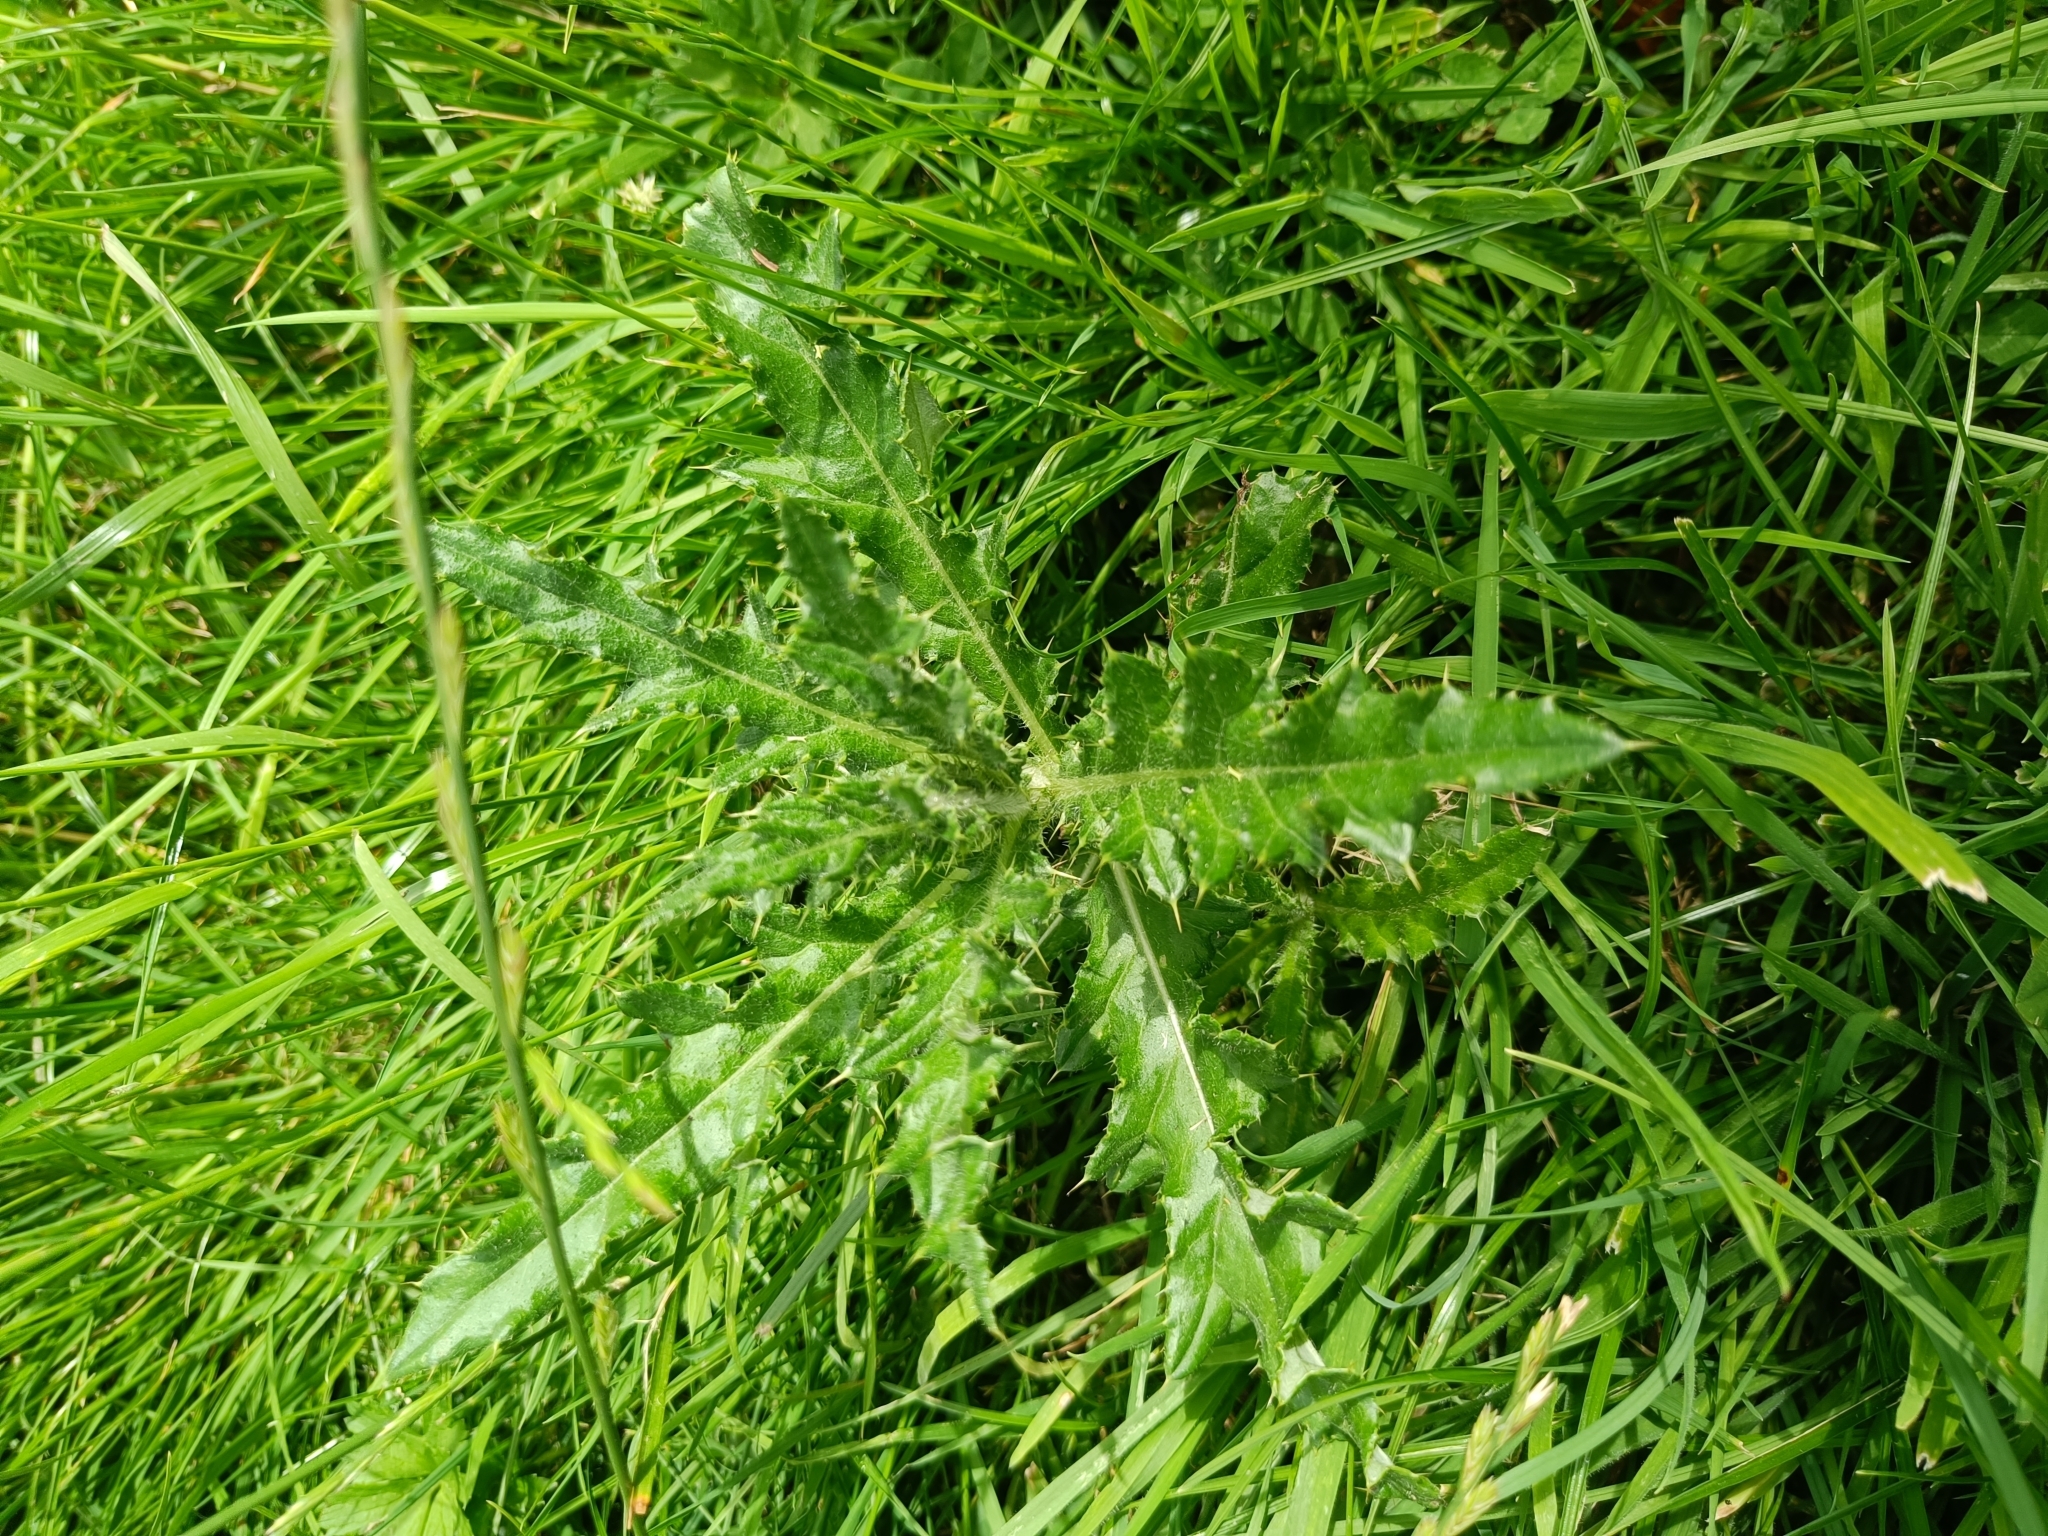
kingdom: Plantae
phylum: Tracheophyta
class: Magnoliopsida
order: Asterales
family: Asteraceae
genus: Cirsium
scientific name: Cirsium arvense
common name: Creeping thistle
